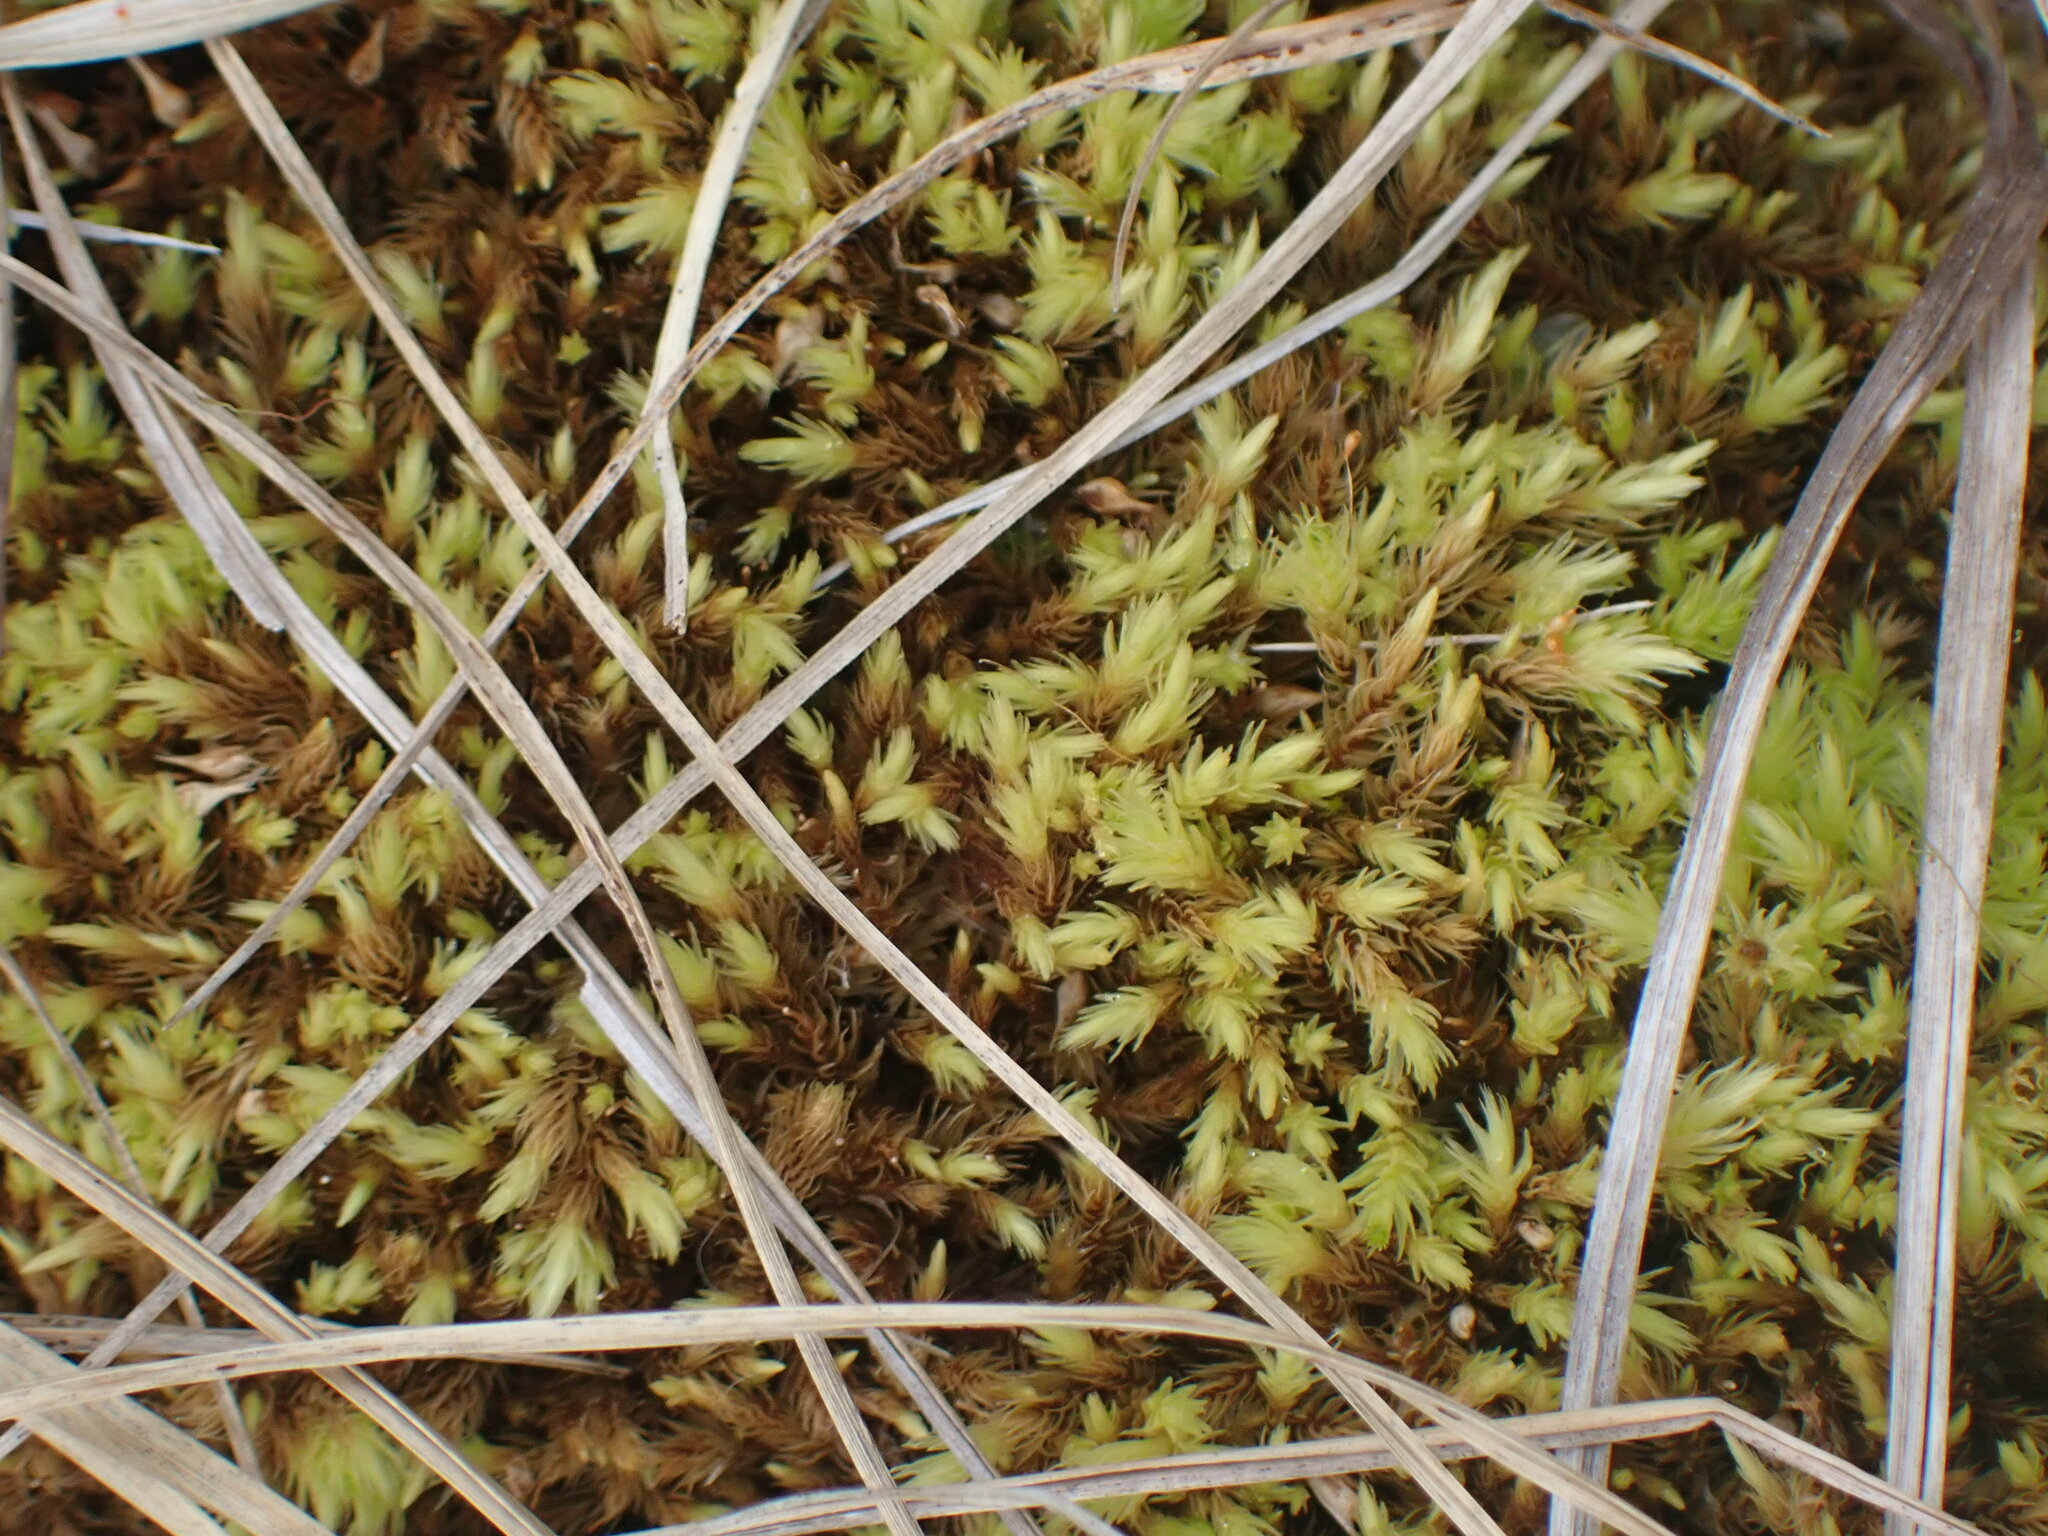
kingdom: Plantae
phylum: Bryophyta
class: Bryopsida
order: Aulacomniales
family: Aulacomniaceae
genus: Aulacomnium
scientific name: Aulacomnium palustre
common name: Bog groove-moss
